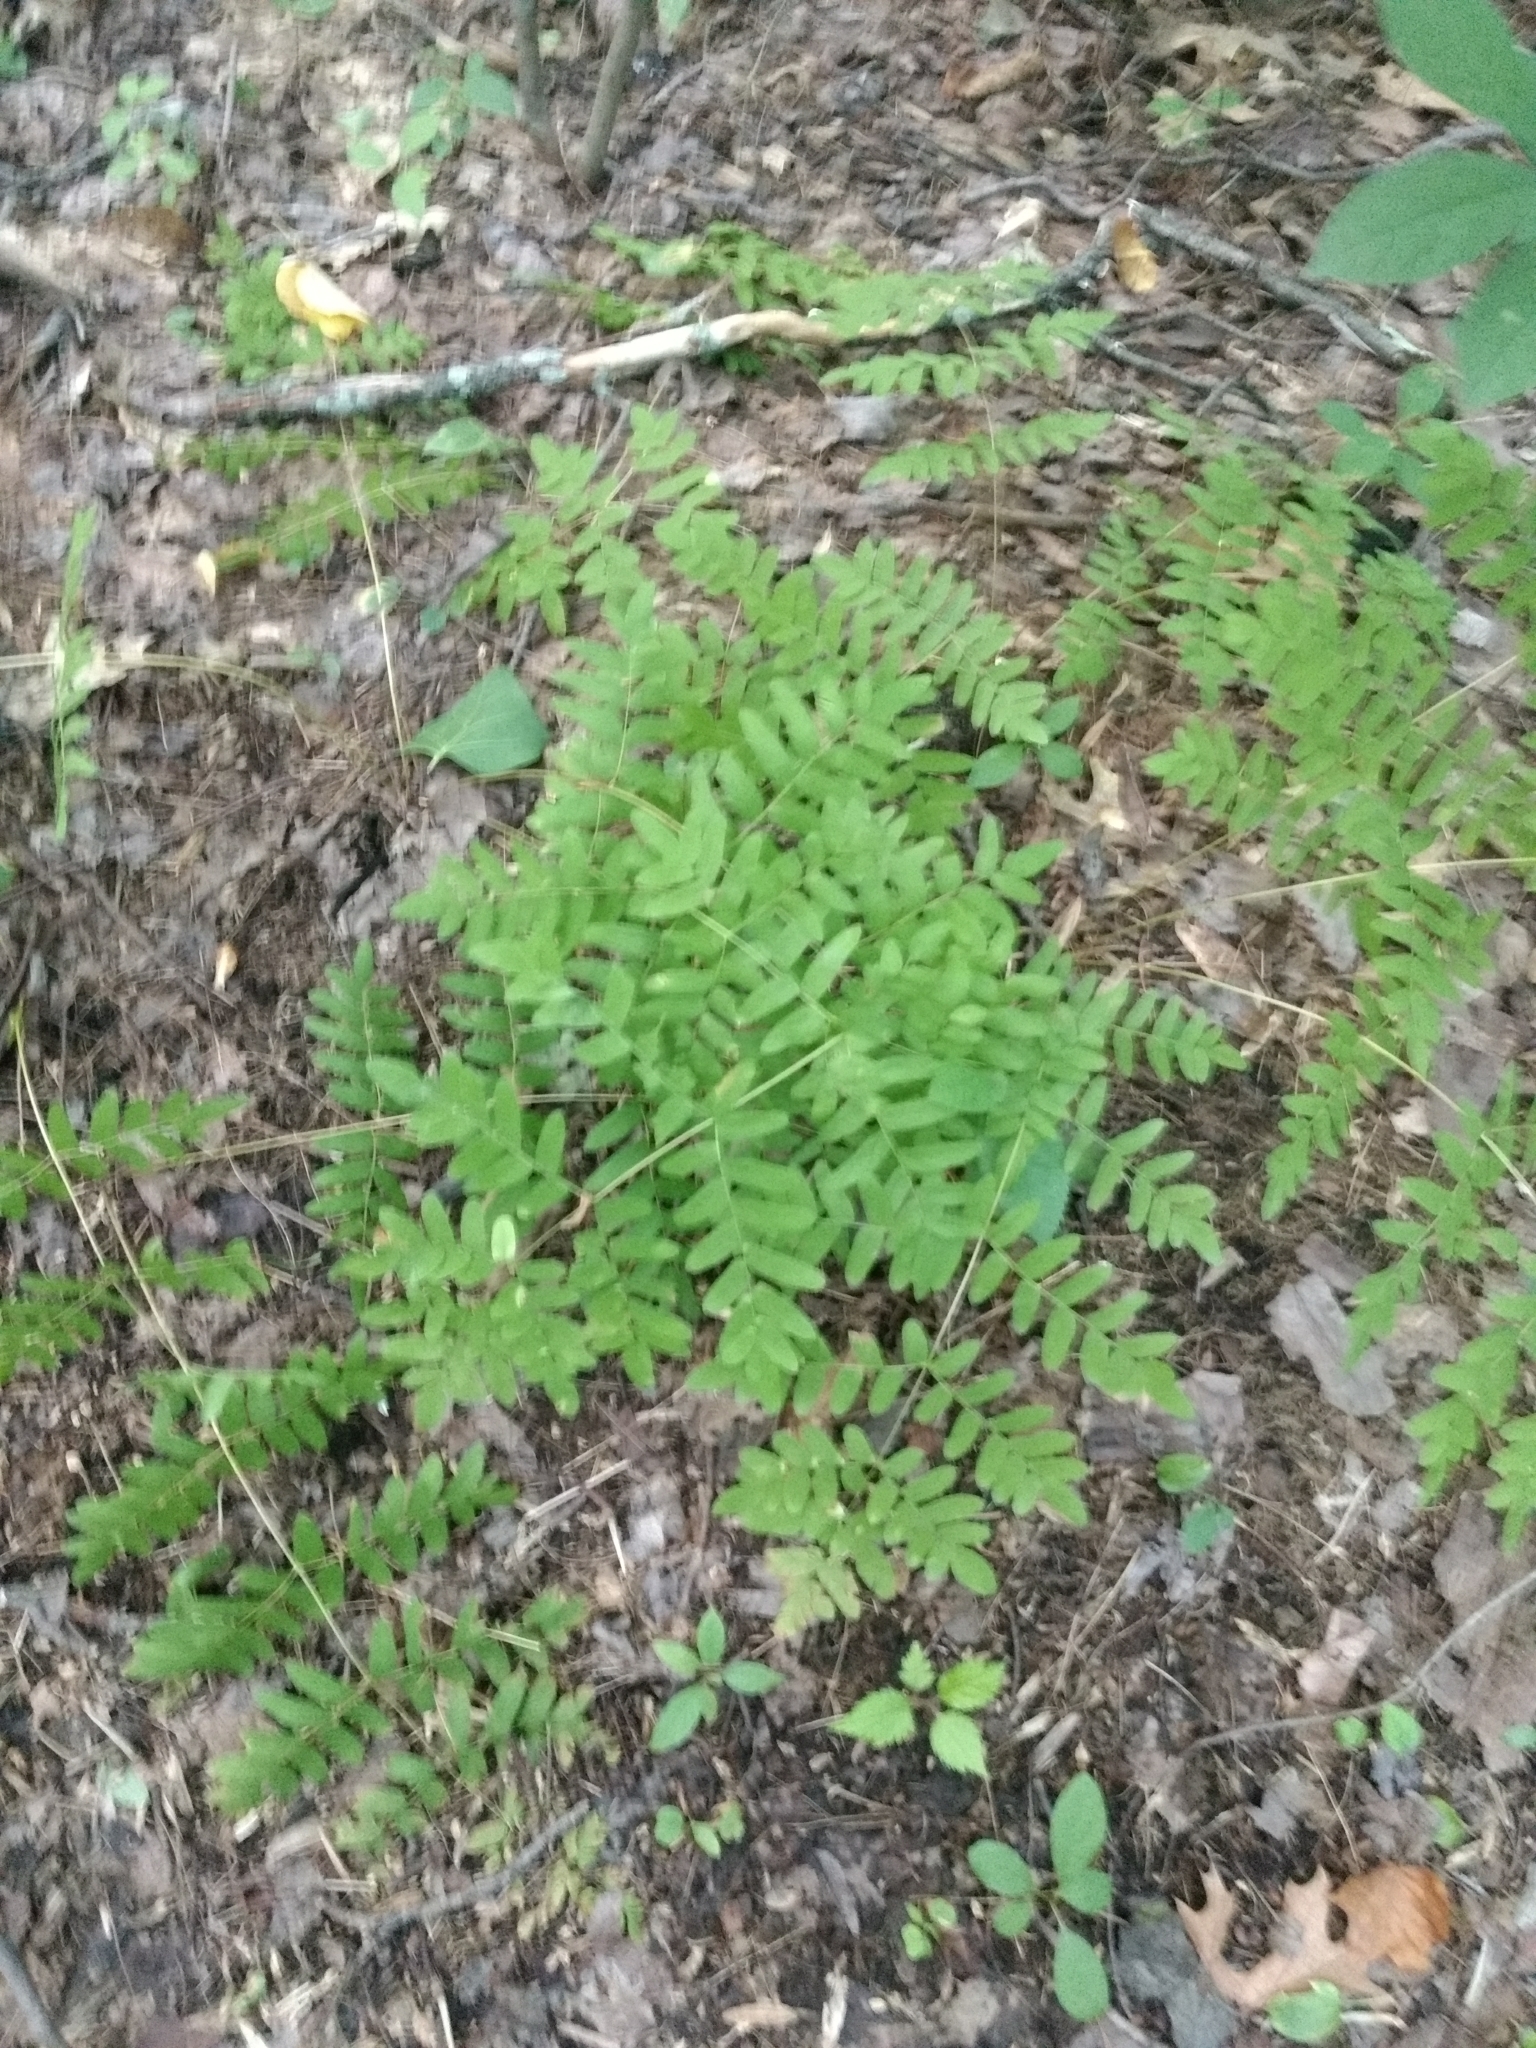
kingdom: Plantae
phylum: Tracheophyta
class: Polypodiopsida
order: Osmundales
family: Osmundaceae
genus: Osmunda
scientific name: Osmunda spectabilis
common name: American royal fern
